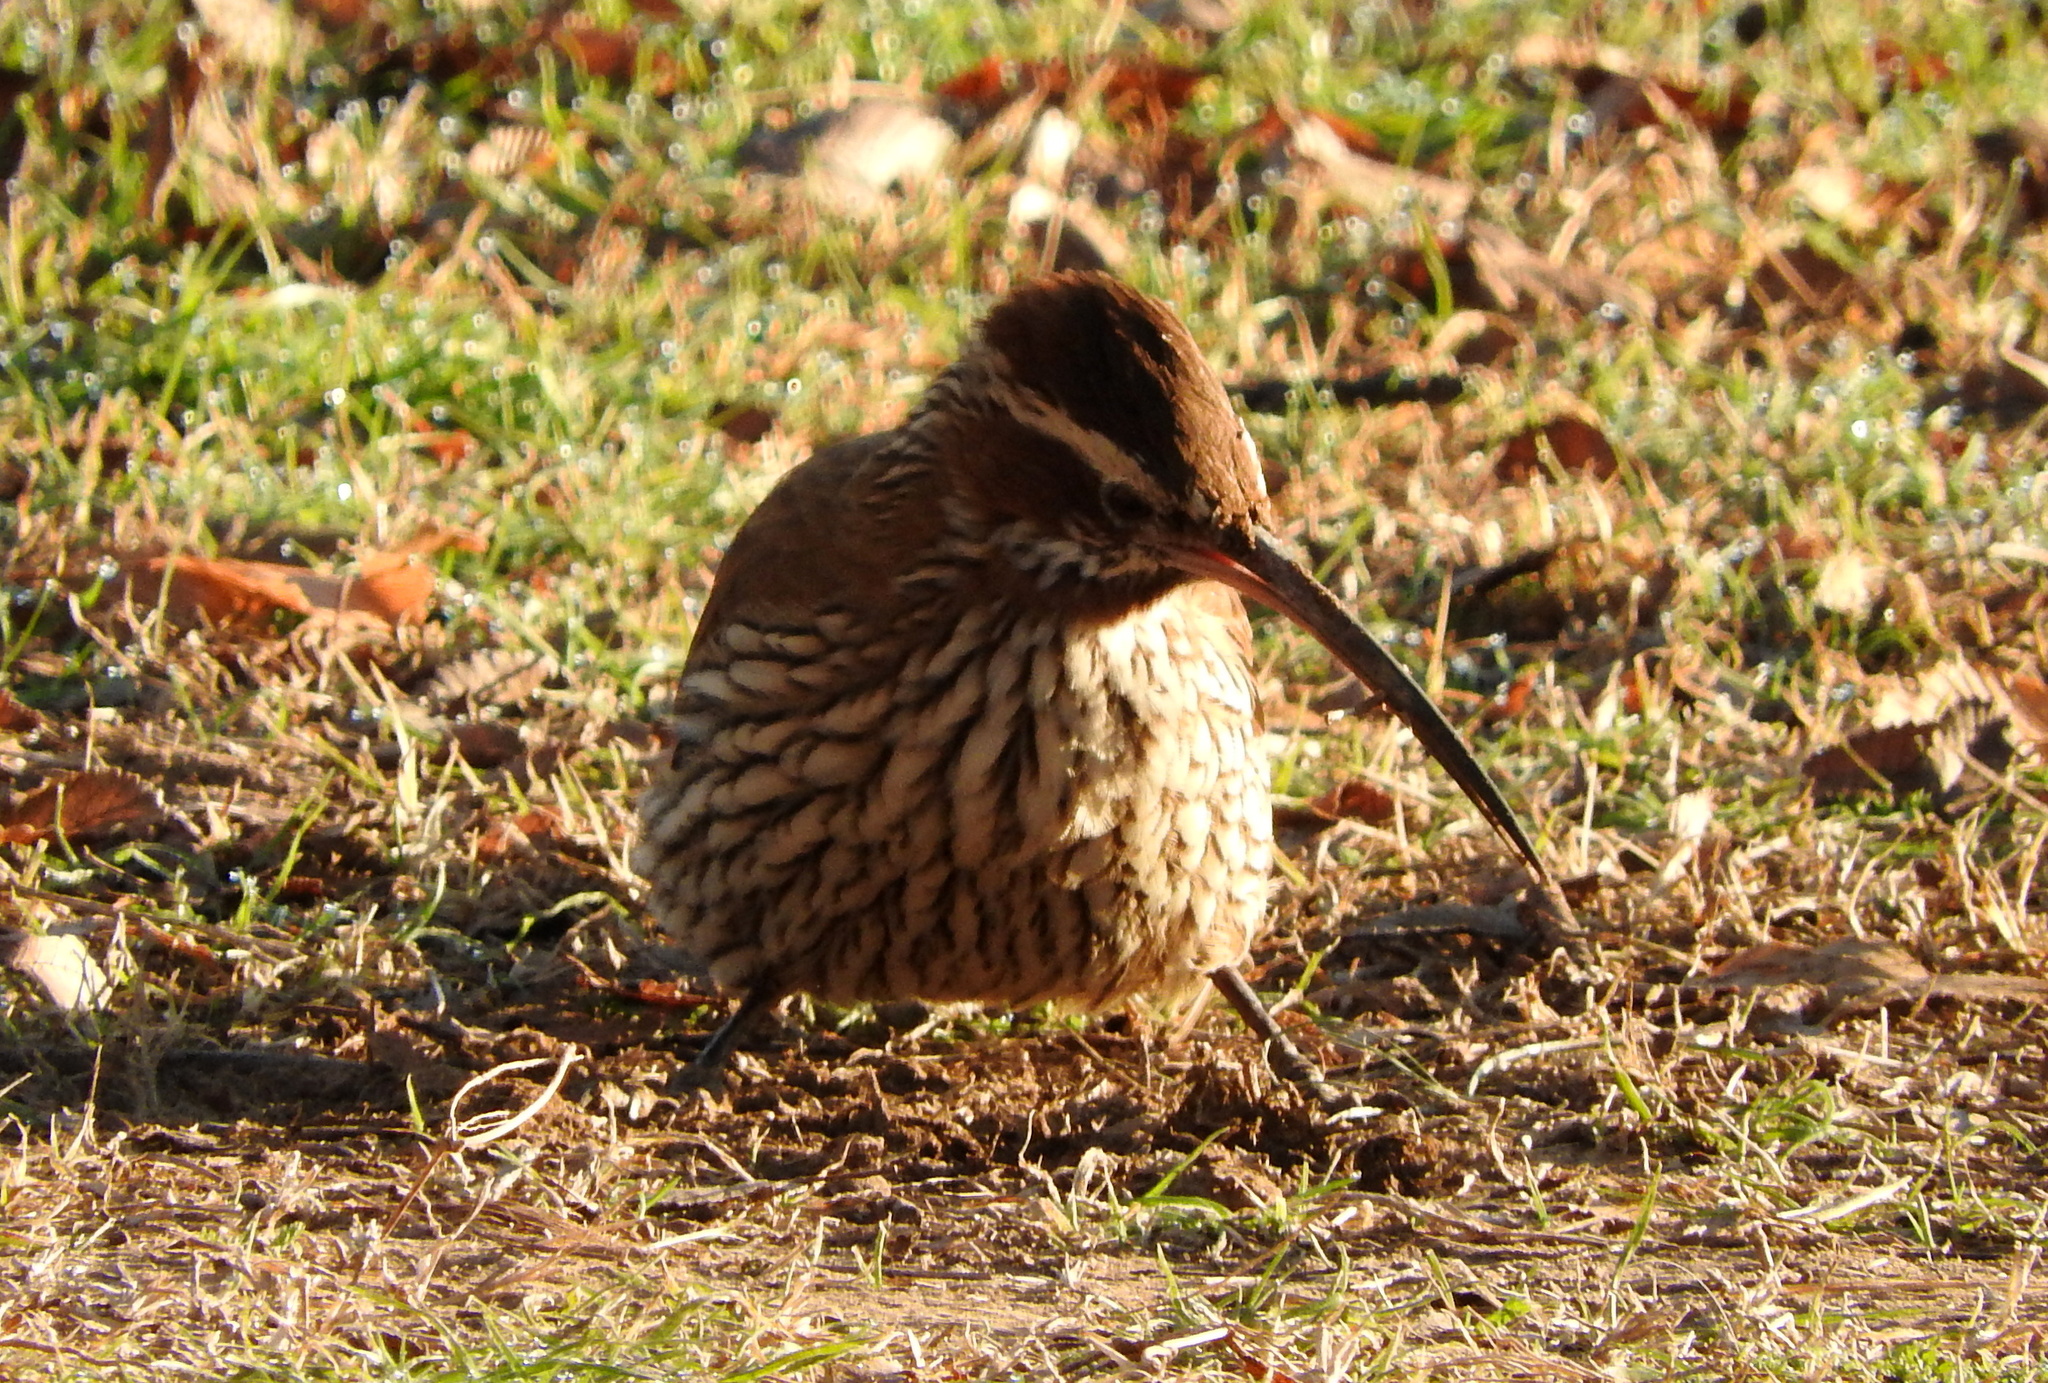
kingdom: Animalia
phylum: Chordata
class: Aves
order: Passeriformes
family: Furnariidae
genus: Drymornis
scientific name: Drymornis bridgesii
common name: Scimitar-billed woodcreeper
